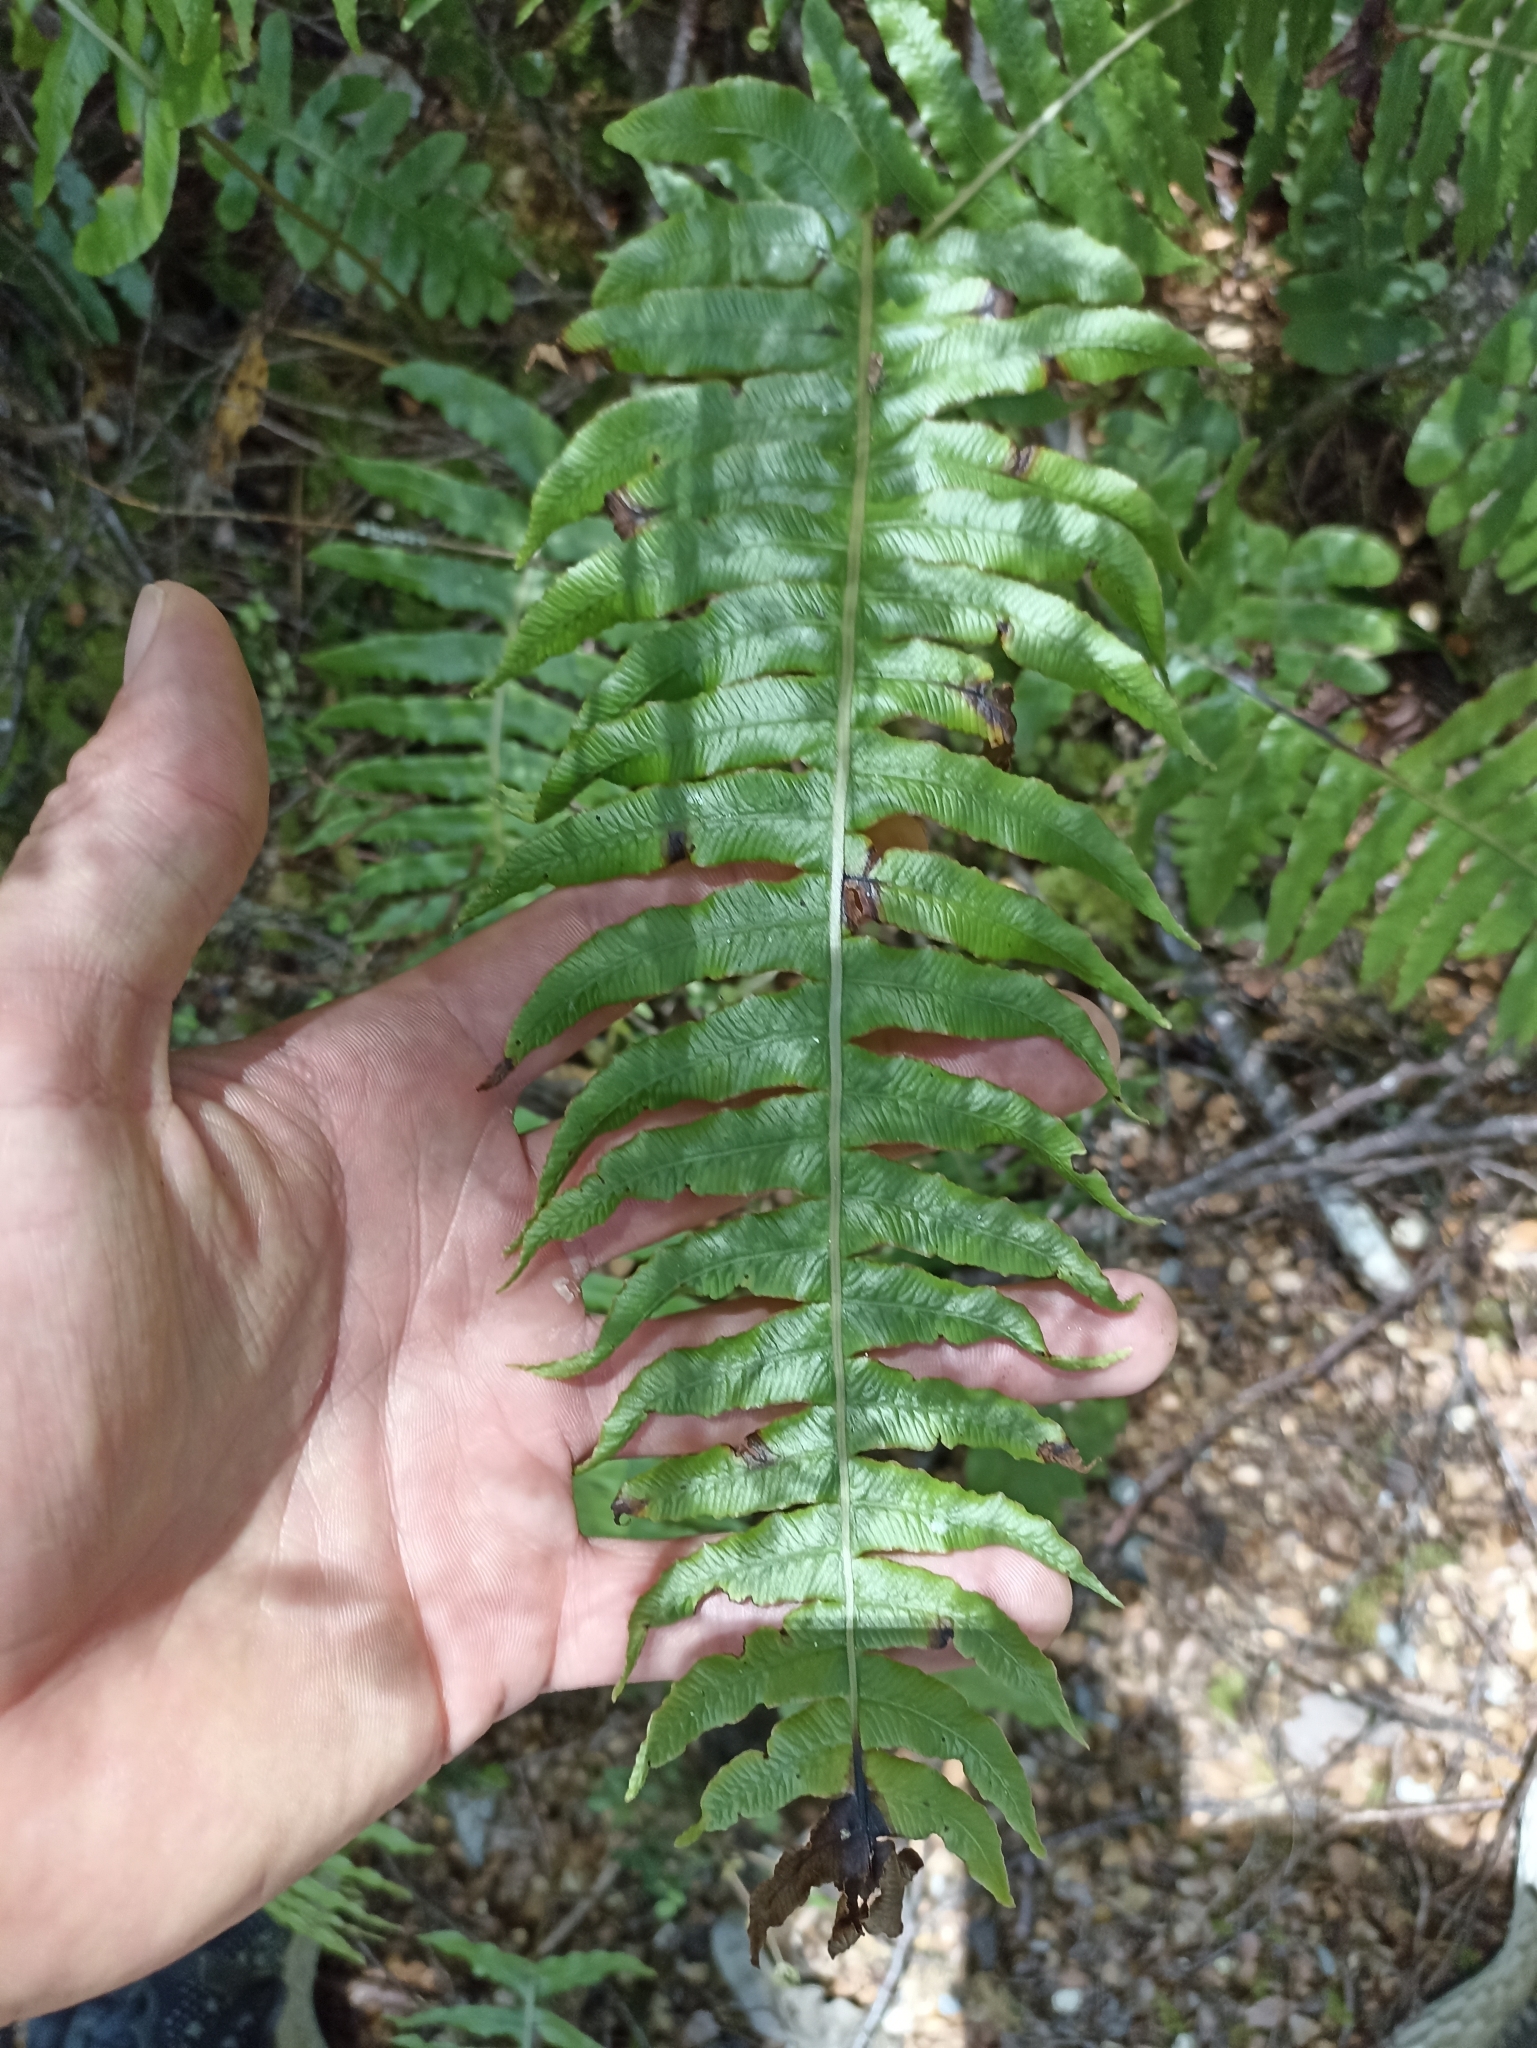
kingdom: Plantae
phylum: Tracheophyta
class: Polypodiopsida
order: Polypodiales
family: Blechnaceae
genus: Cranfillia
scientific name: Cranfillia deltoides
